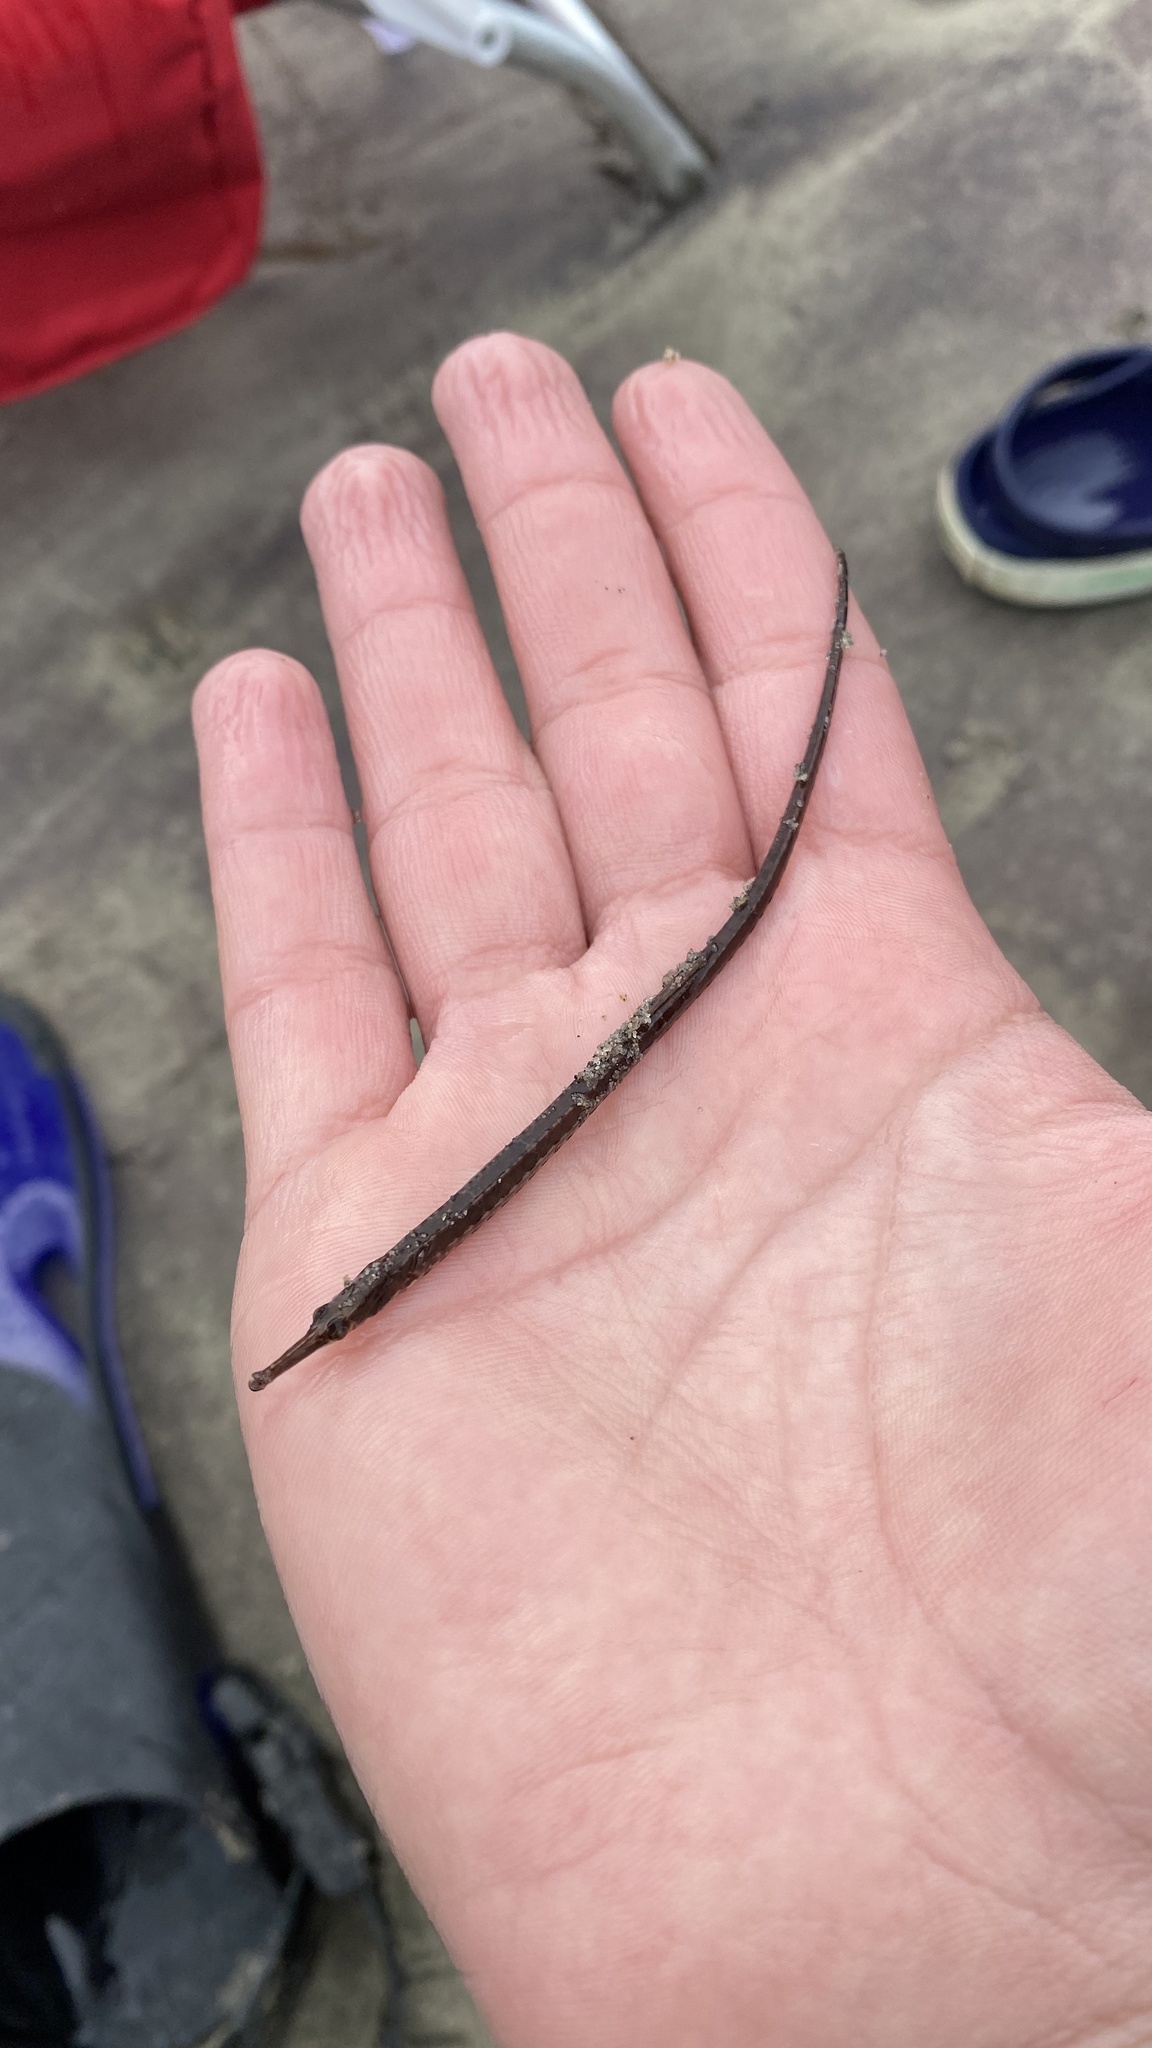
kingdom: Animalia
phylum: Chordata
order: Syngnathiformes
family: Syngnathidae
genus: Syngnathus
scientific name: Syngnathus fuscus
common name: Northern pipefish
